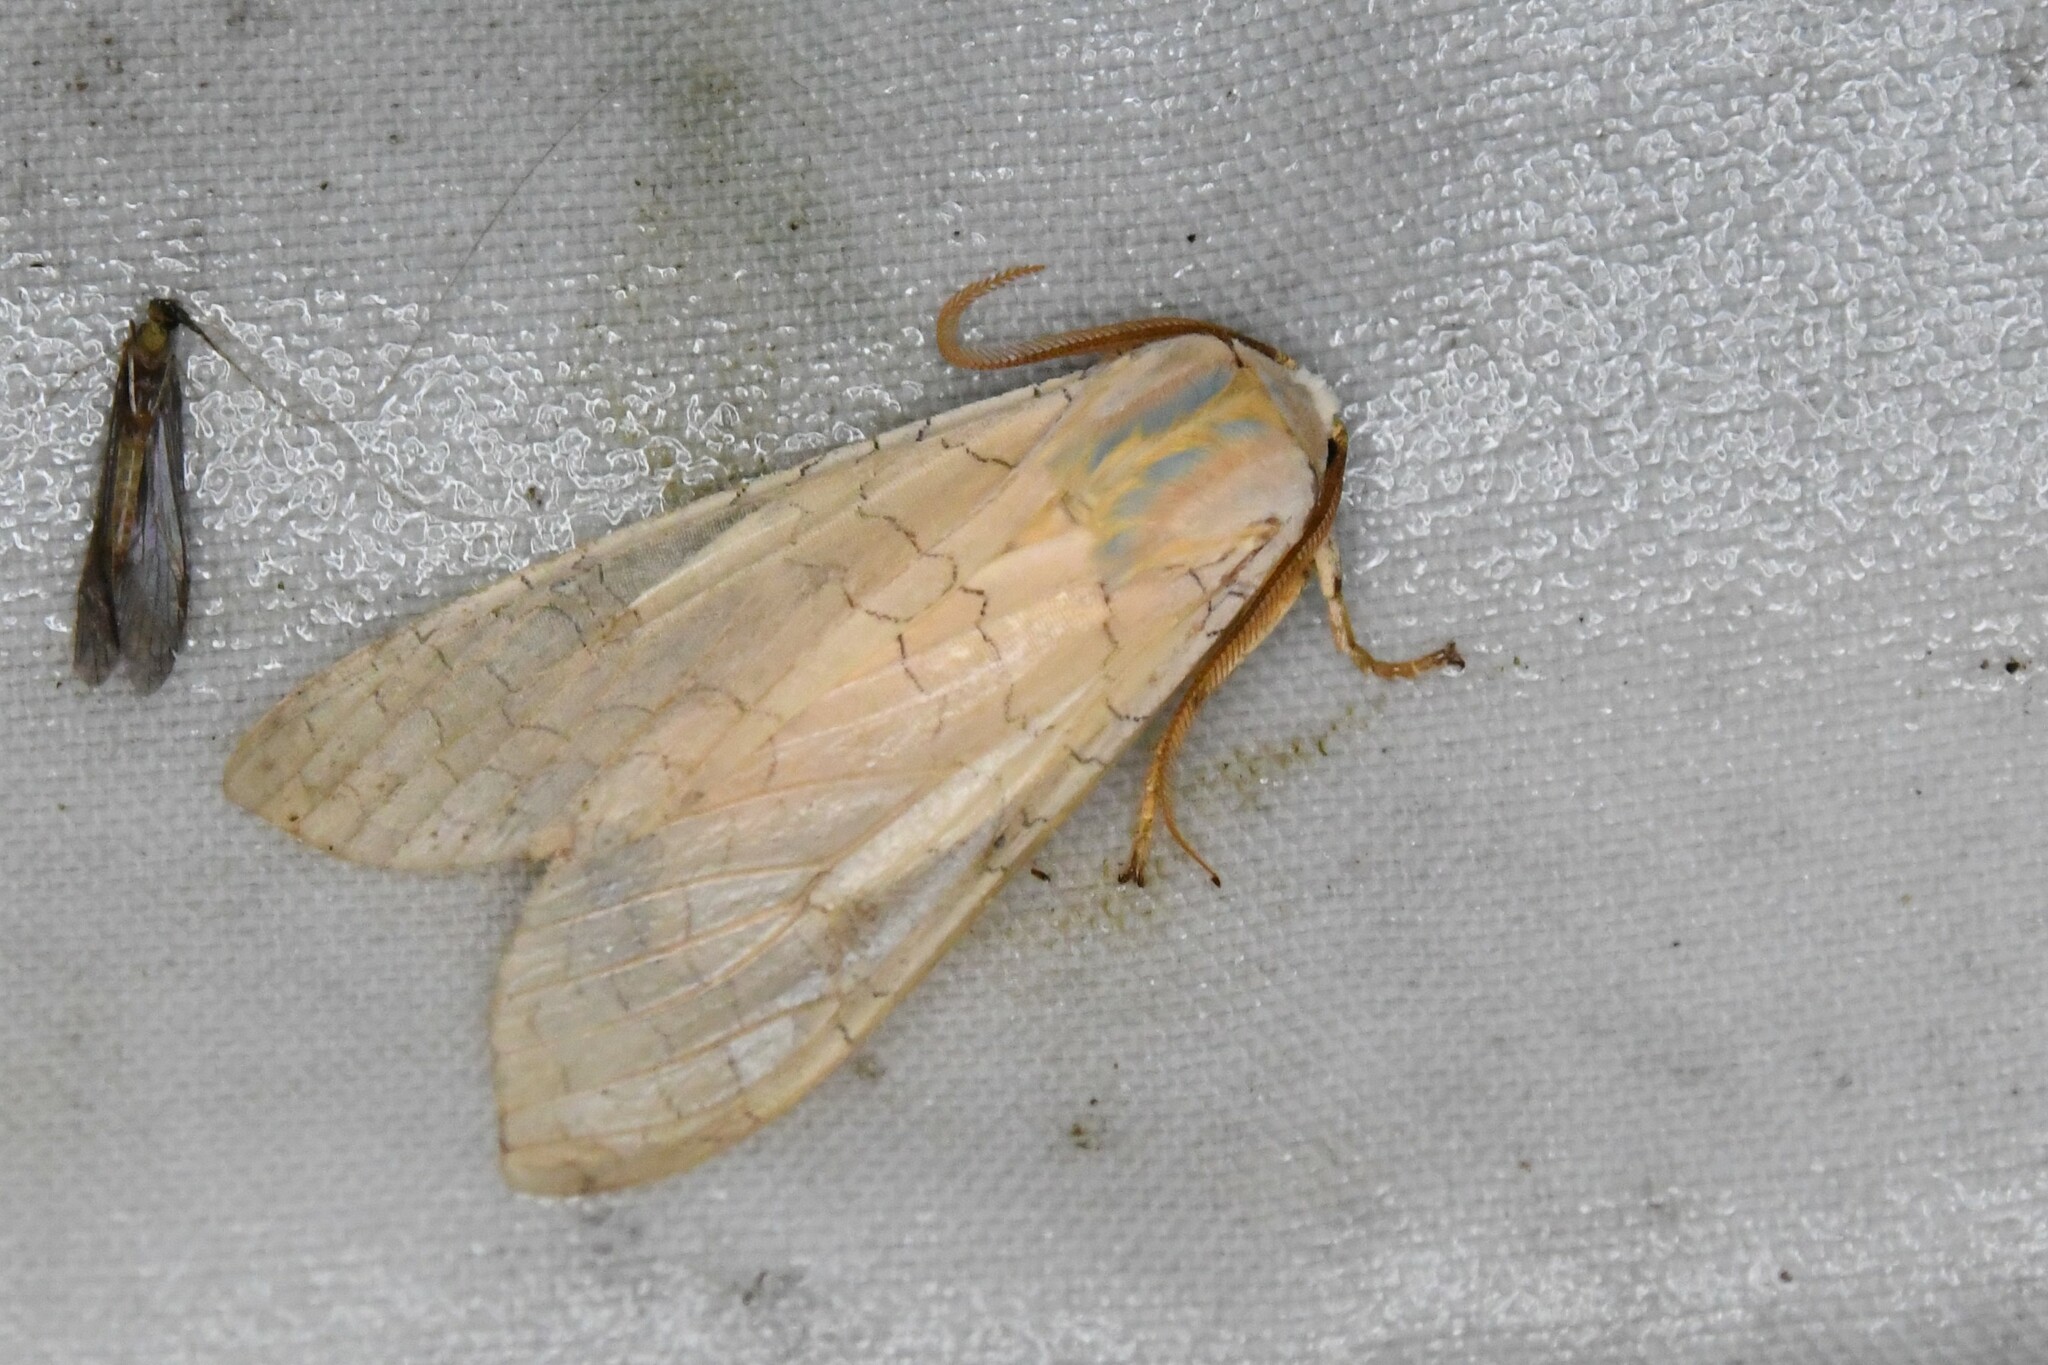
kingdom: Animalia
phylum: Arthropoda
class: Insecta
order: Lepidoptera
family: Erebidae
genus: Halysidota
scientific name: Halysidota tessellaris
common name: Banded tussock moth
